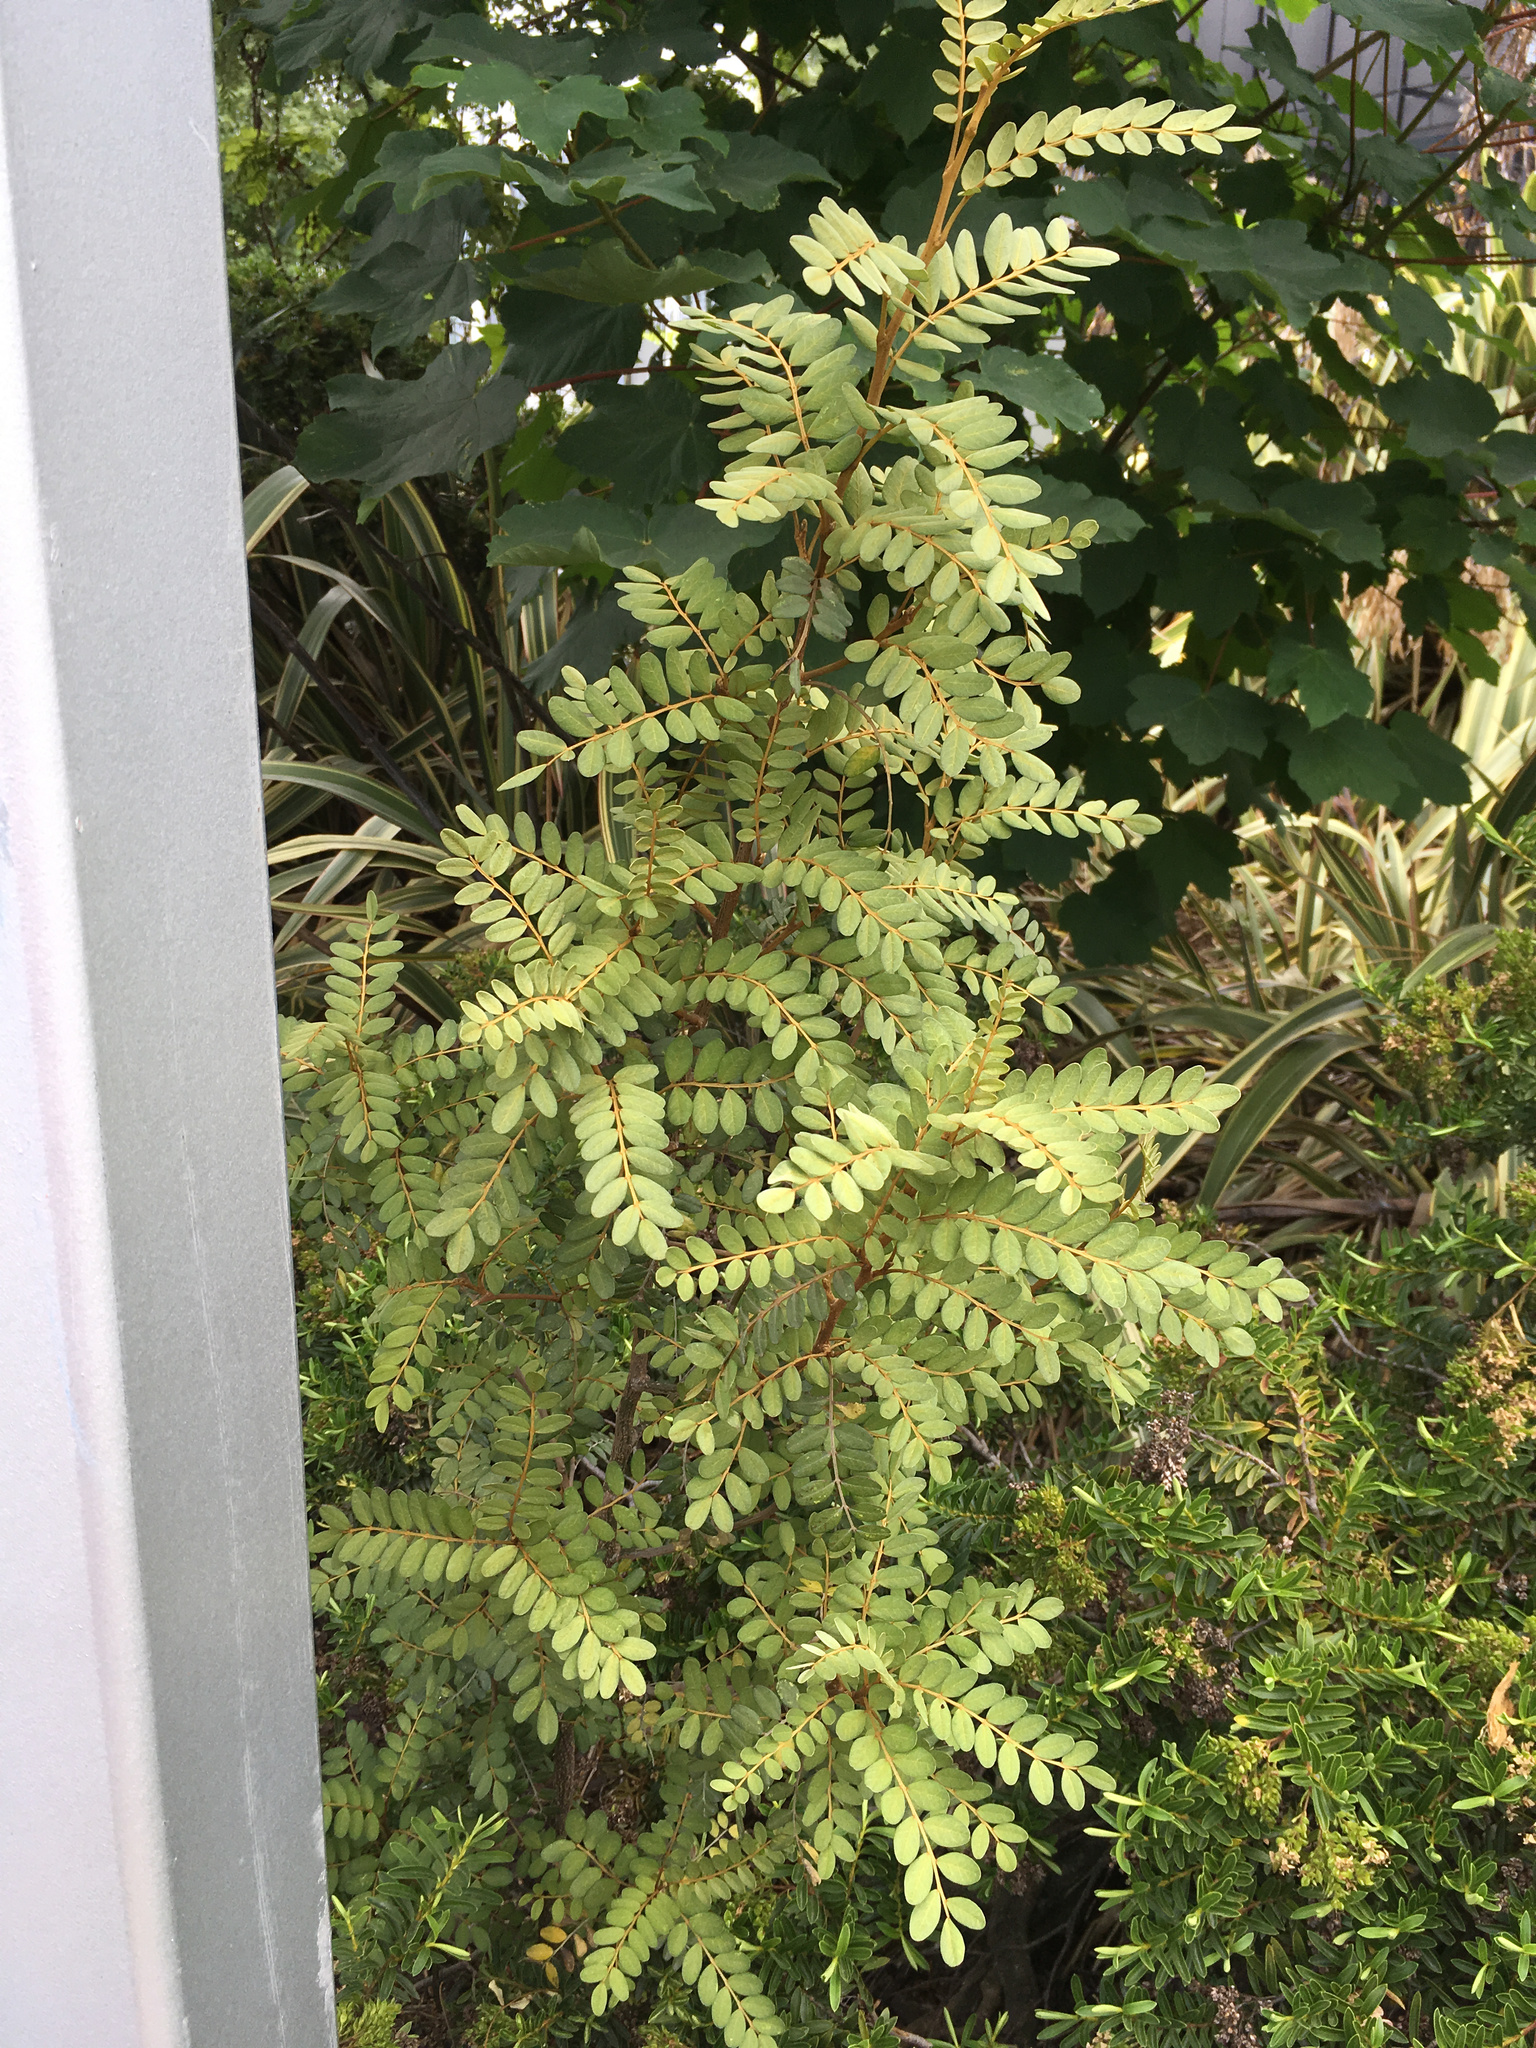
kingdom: Plantae
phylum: Tracheophyta
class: Magnoliopsida
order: Fabales
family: Fabaceae
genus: Sophora
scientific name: Sophora tetraptera
